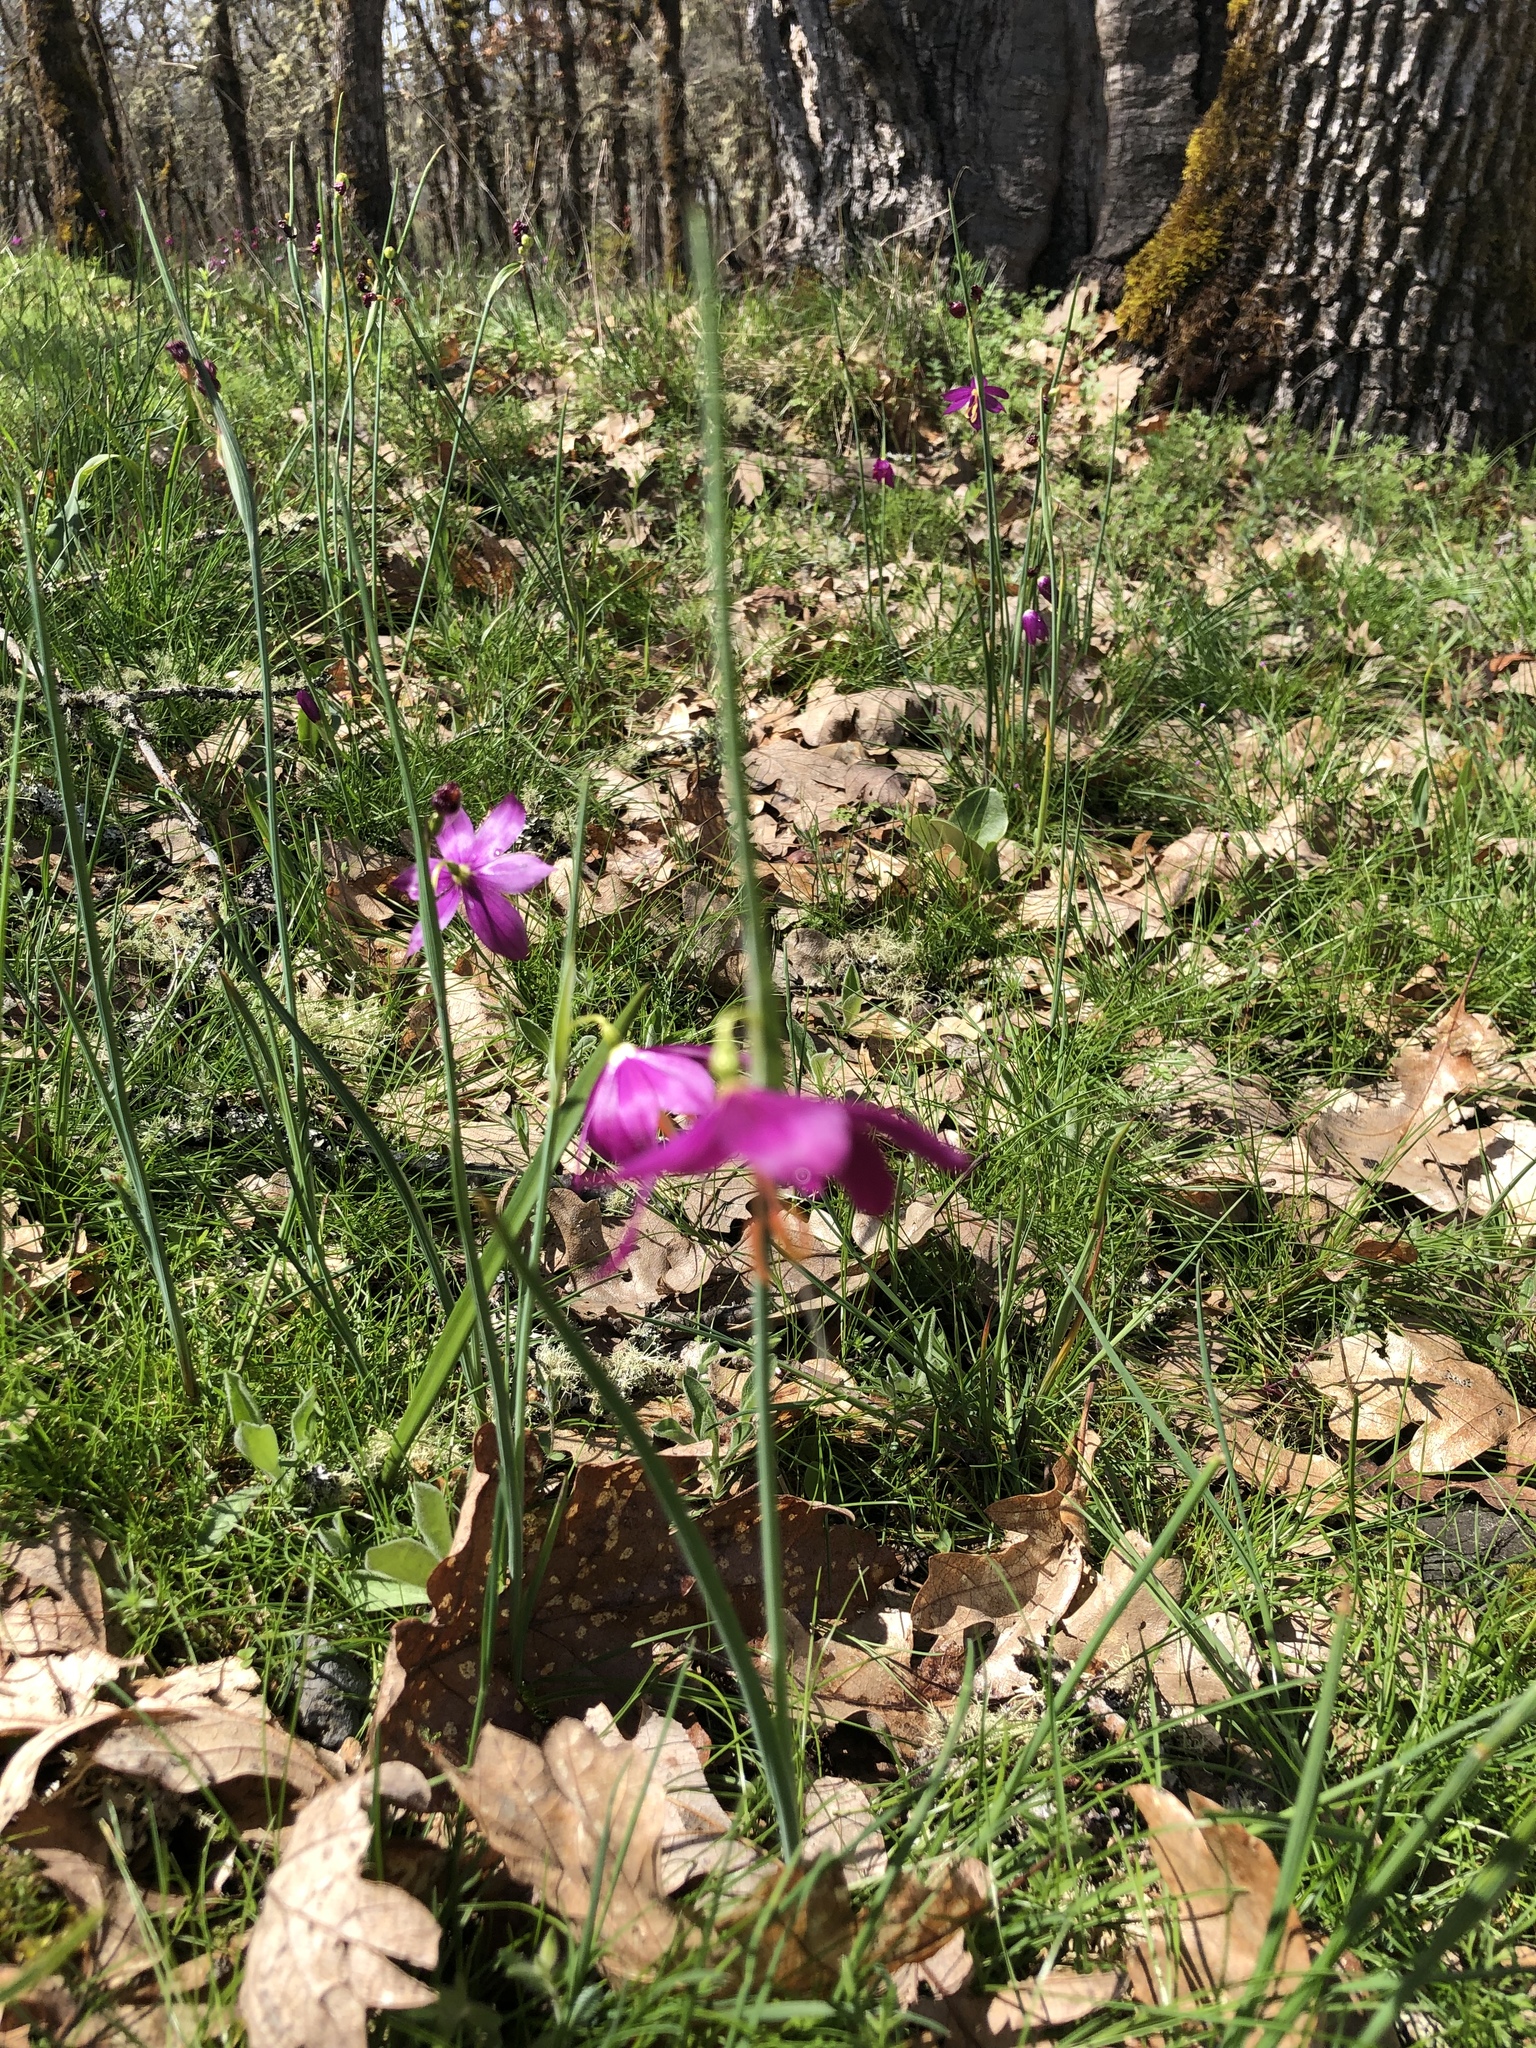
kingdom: Plantae
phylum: Tracheophyta
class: Liliopsida
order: Asparagales
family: Iridaceae
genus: Olsynium
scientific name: Olsynium douglasii
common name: Douglas' grasswidow
